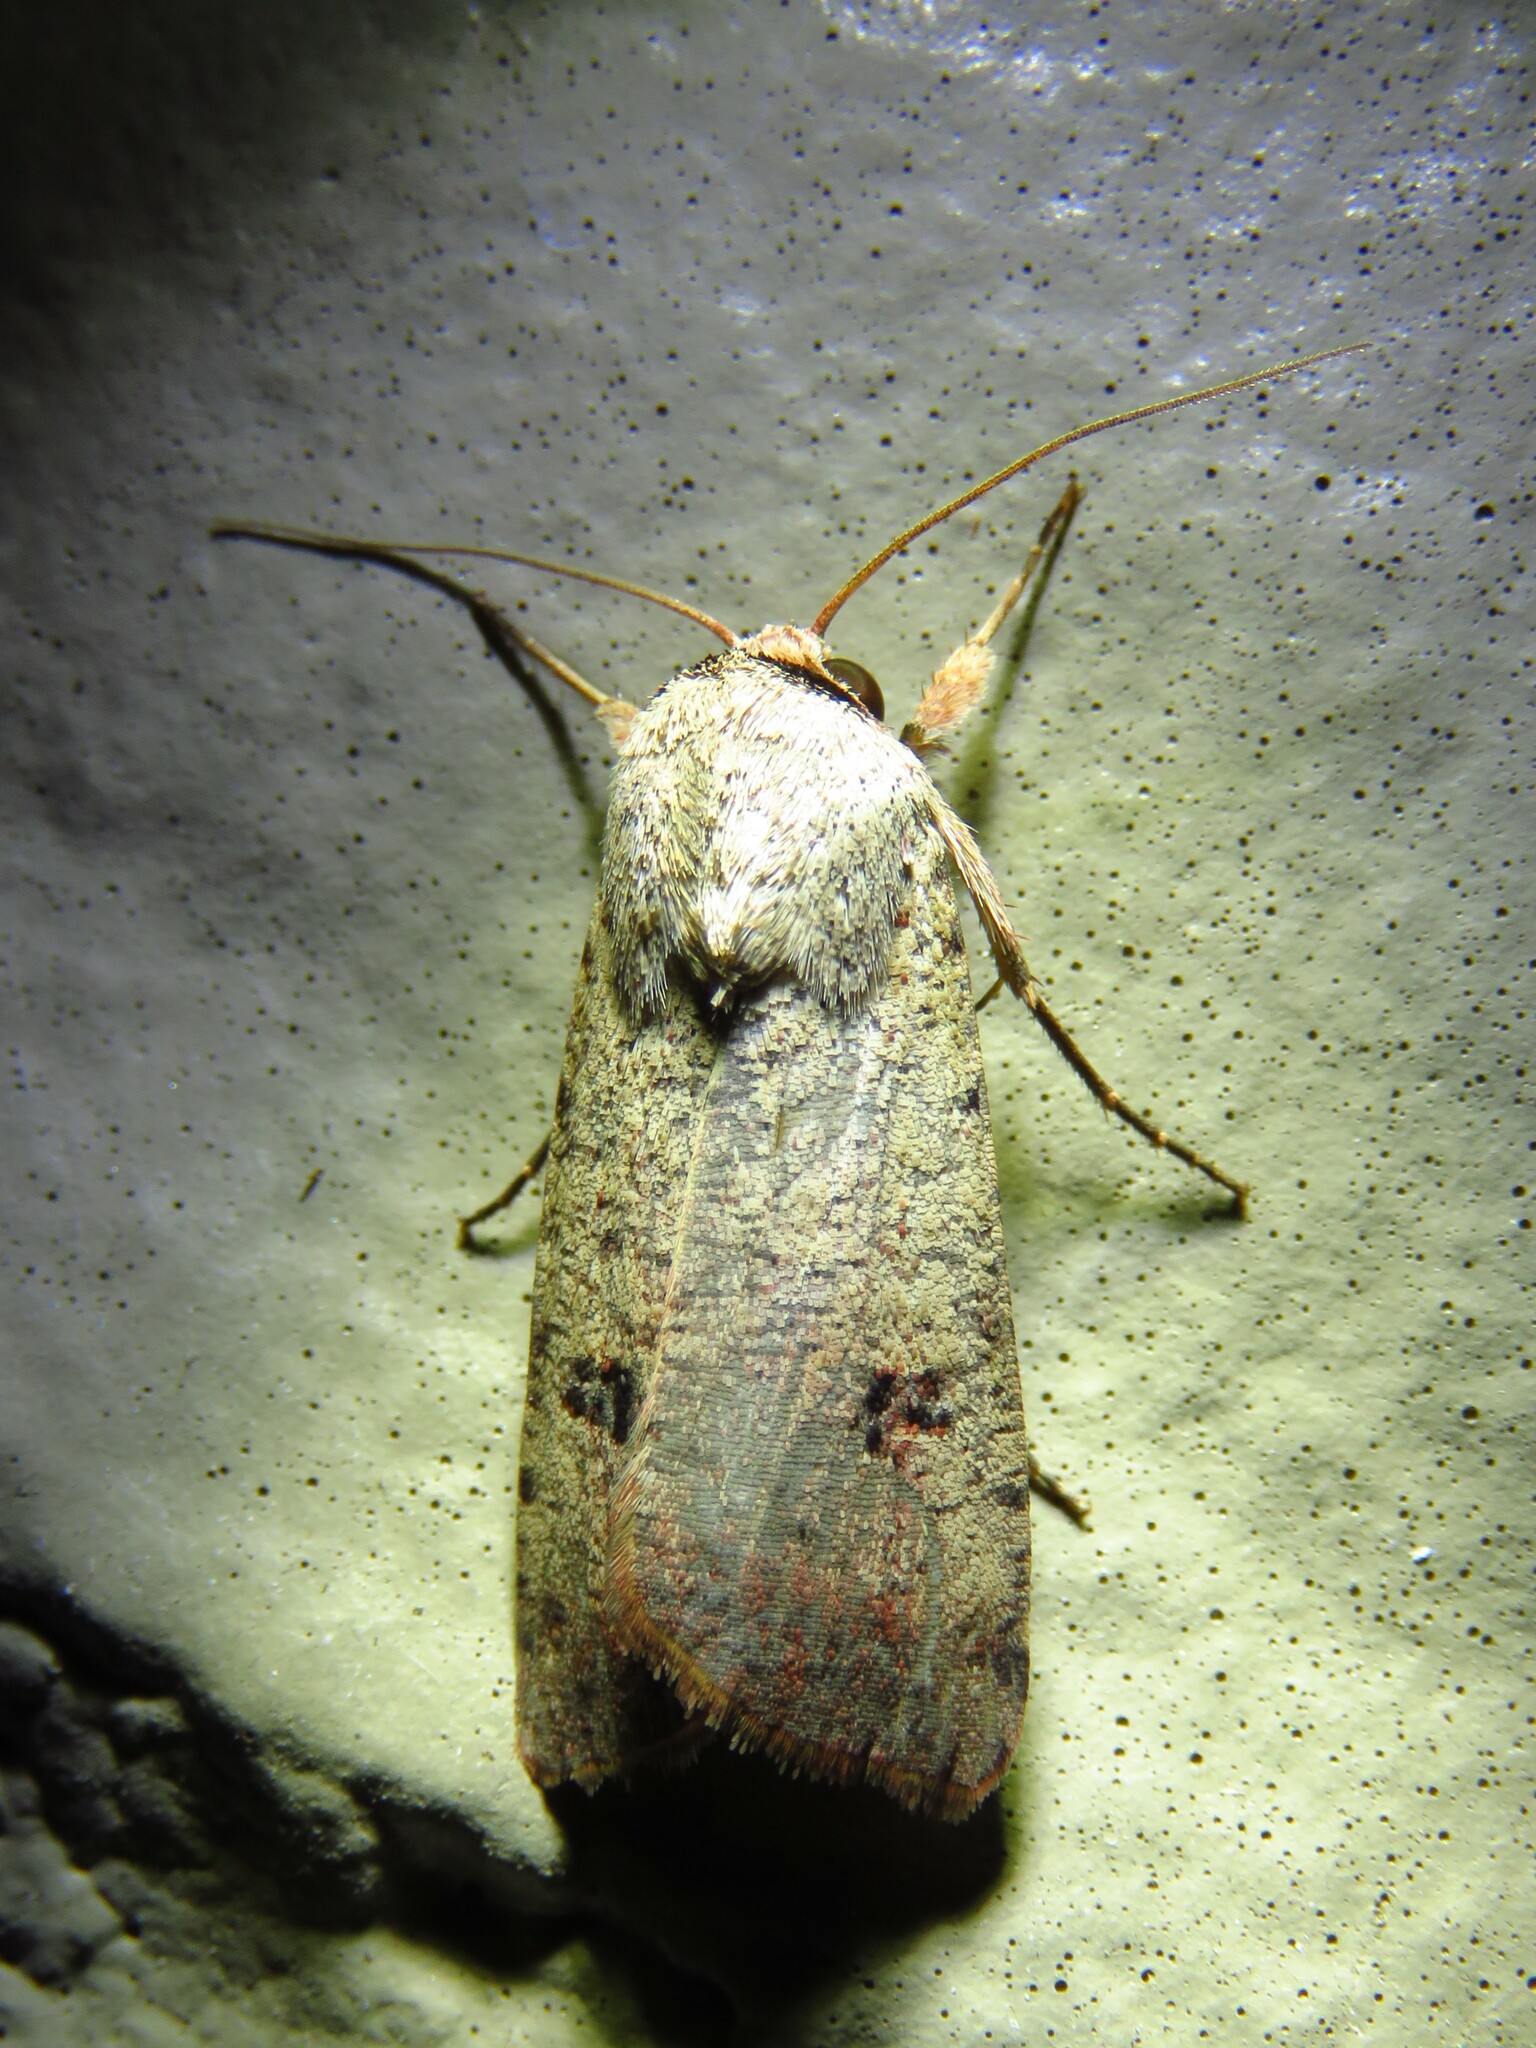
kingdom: Animalia
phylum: Arthropoda
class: Insecta
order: Lepidoptera
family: Noctuidae
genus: Anicla
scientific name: Anicla infecta
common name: Green cutworm
